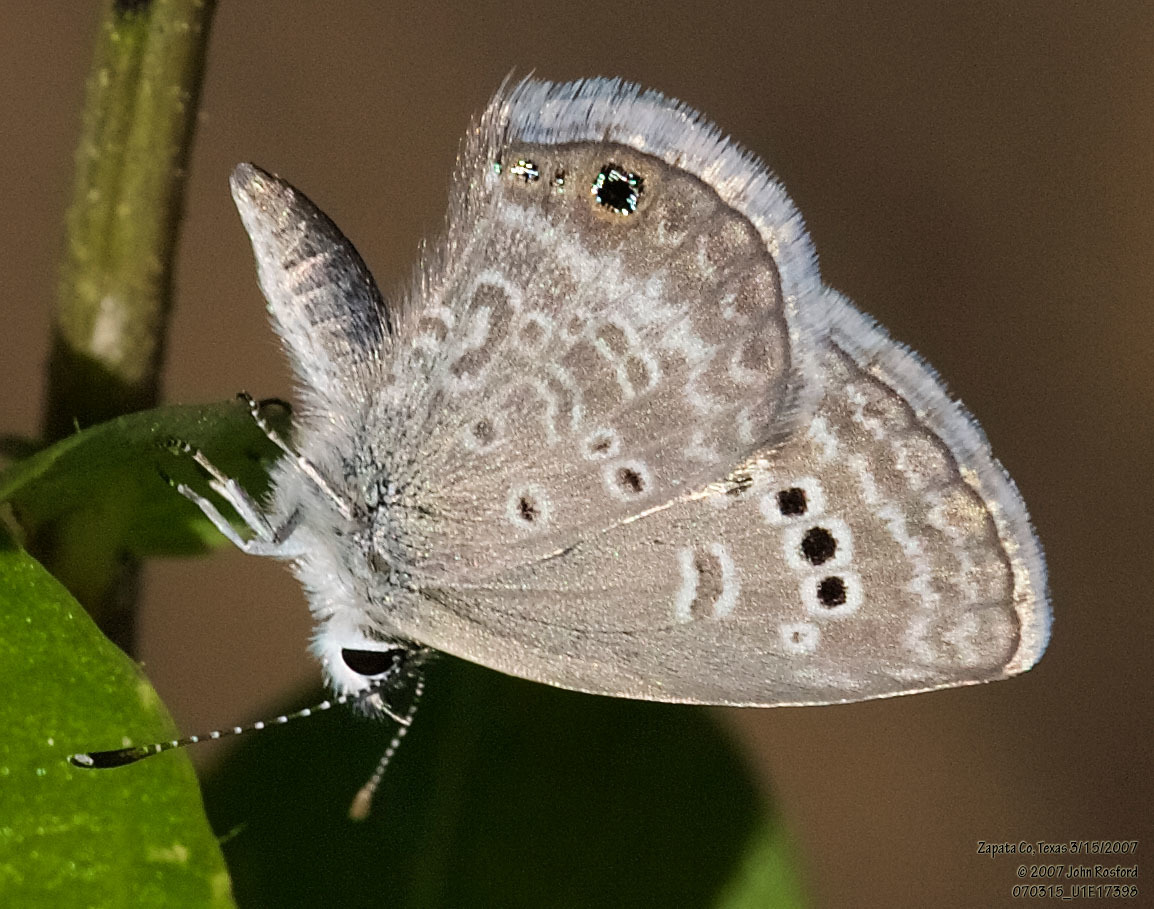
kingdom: Animalia
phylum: Arthropoda
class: Insecta
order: Lepidoptera
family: Lycaenidae
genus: Echinargus
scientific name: Echinargus isola
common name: Reakirt's blue
